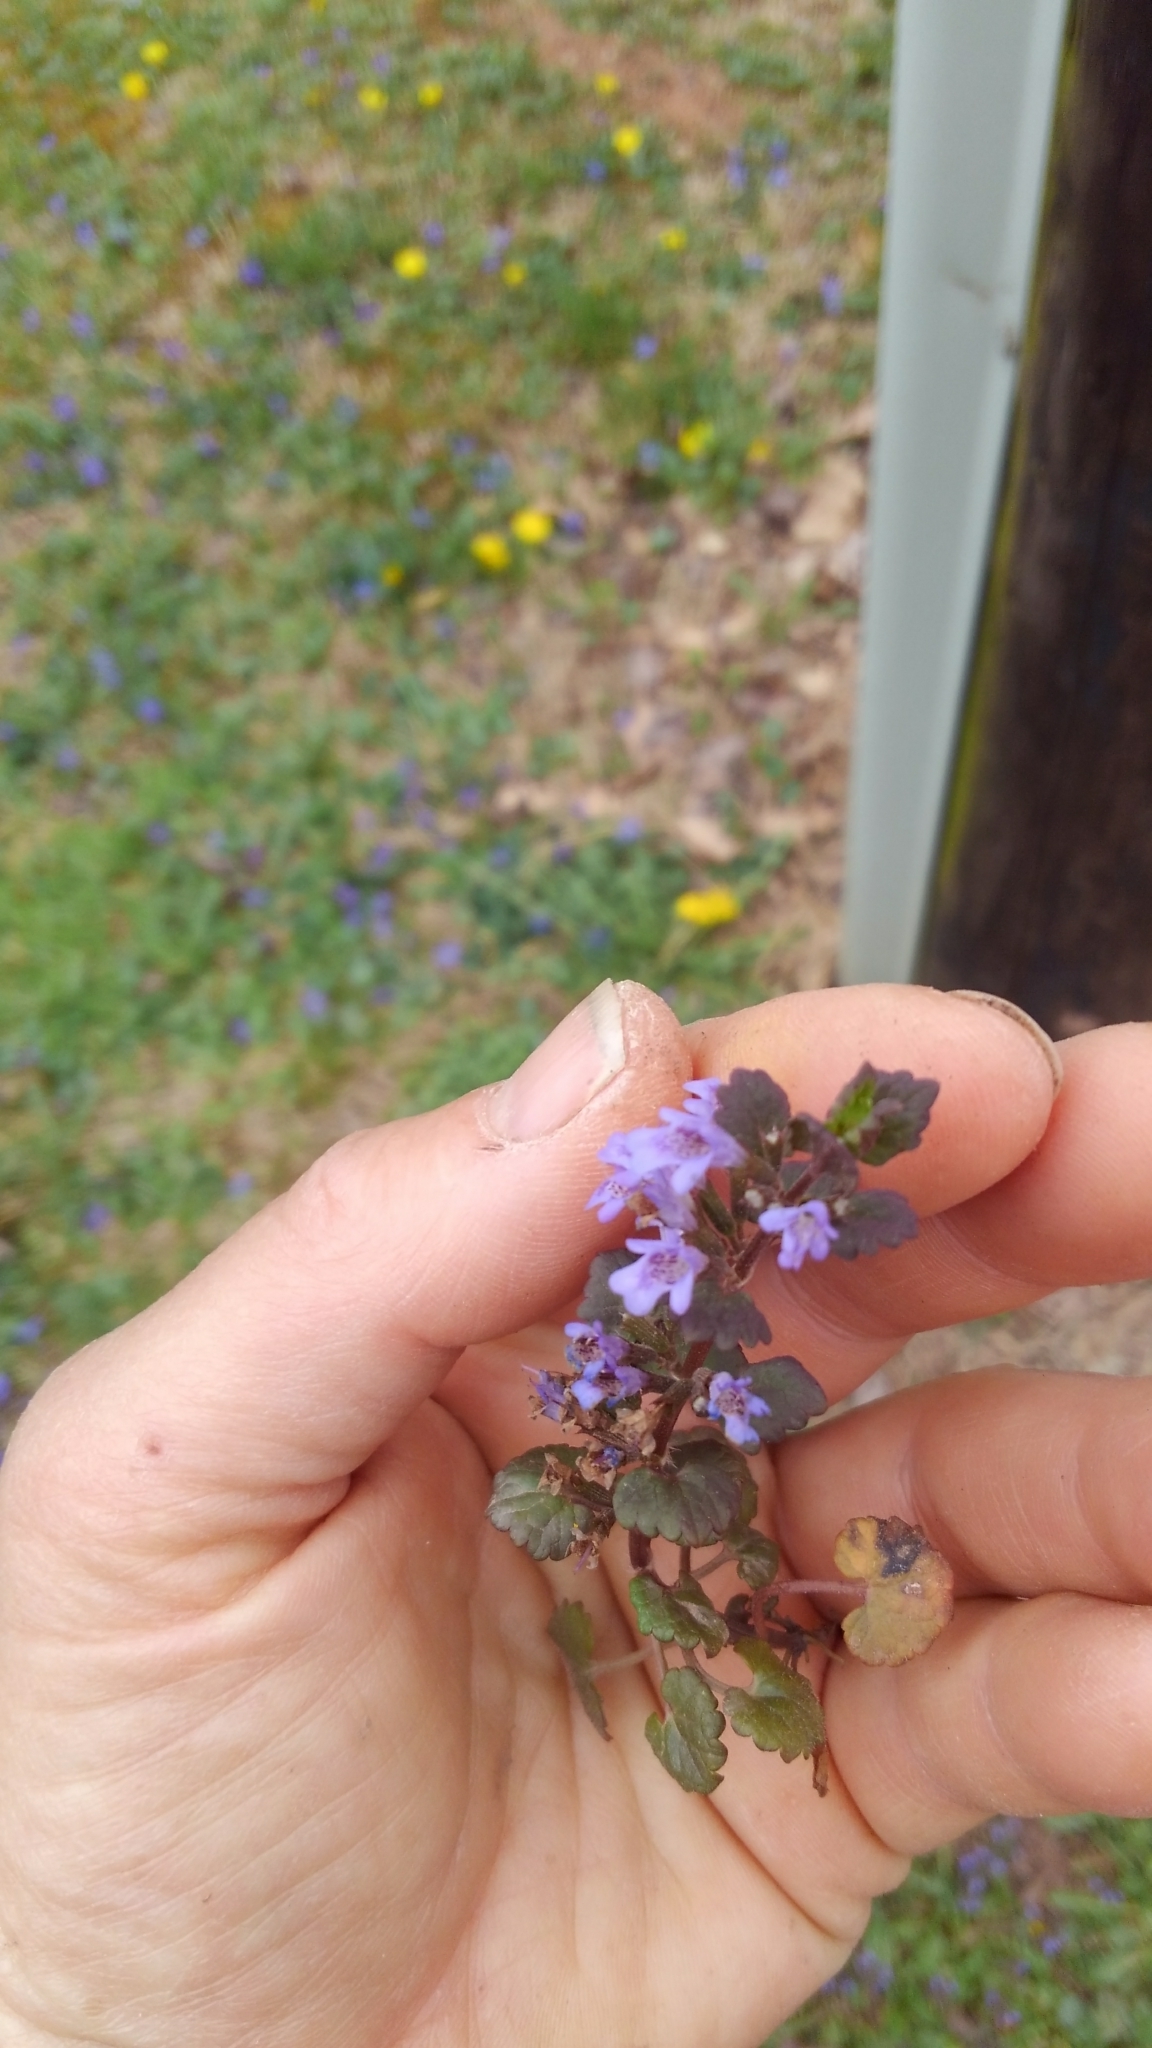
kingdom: Plantae
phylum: Tracheophyta
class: Magnoliopsida
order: Lamiales
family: Lamiaceae
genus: Glechoma
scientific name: Glechoma hederacea
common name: Ground ivy
